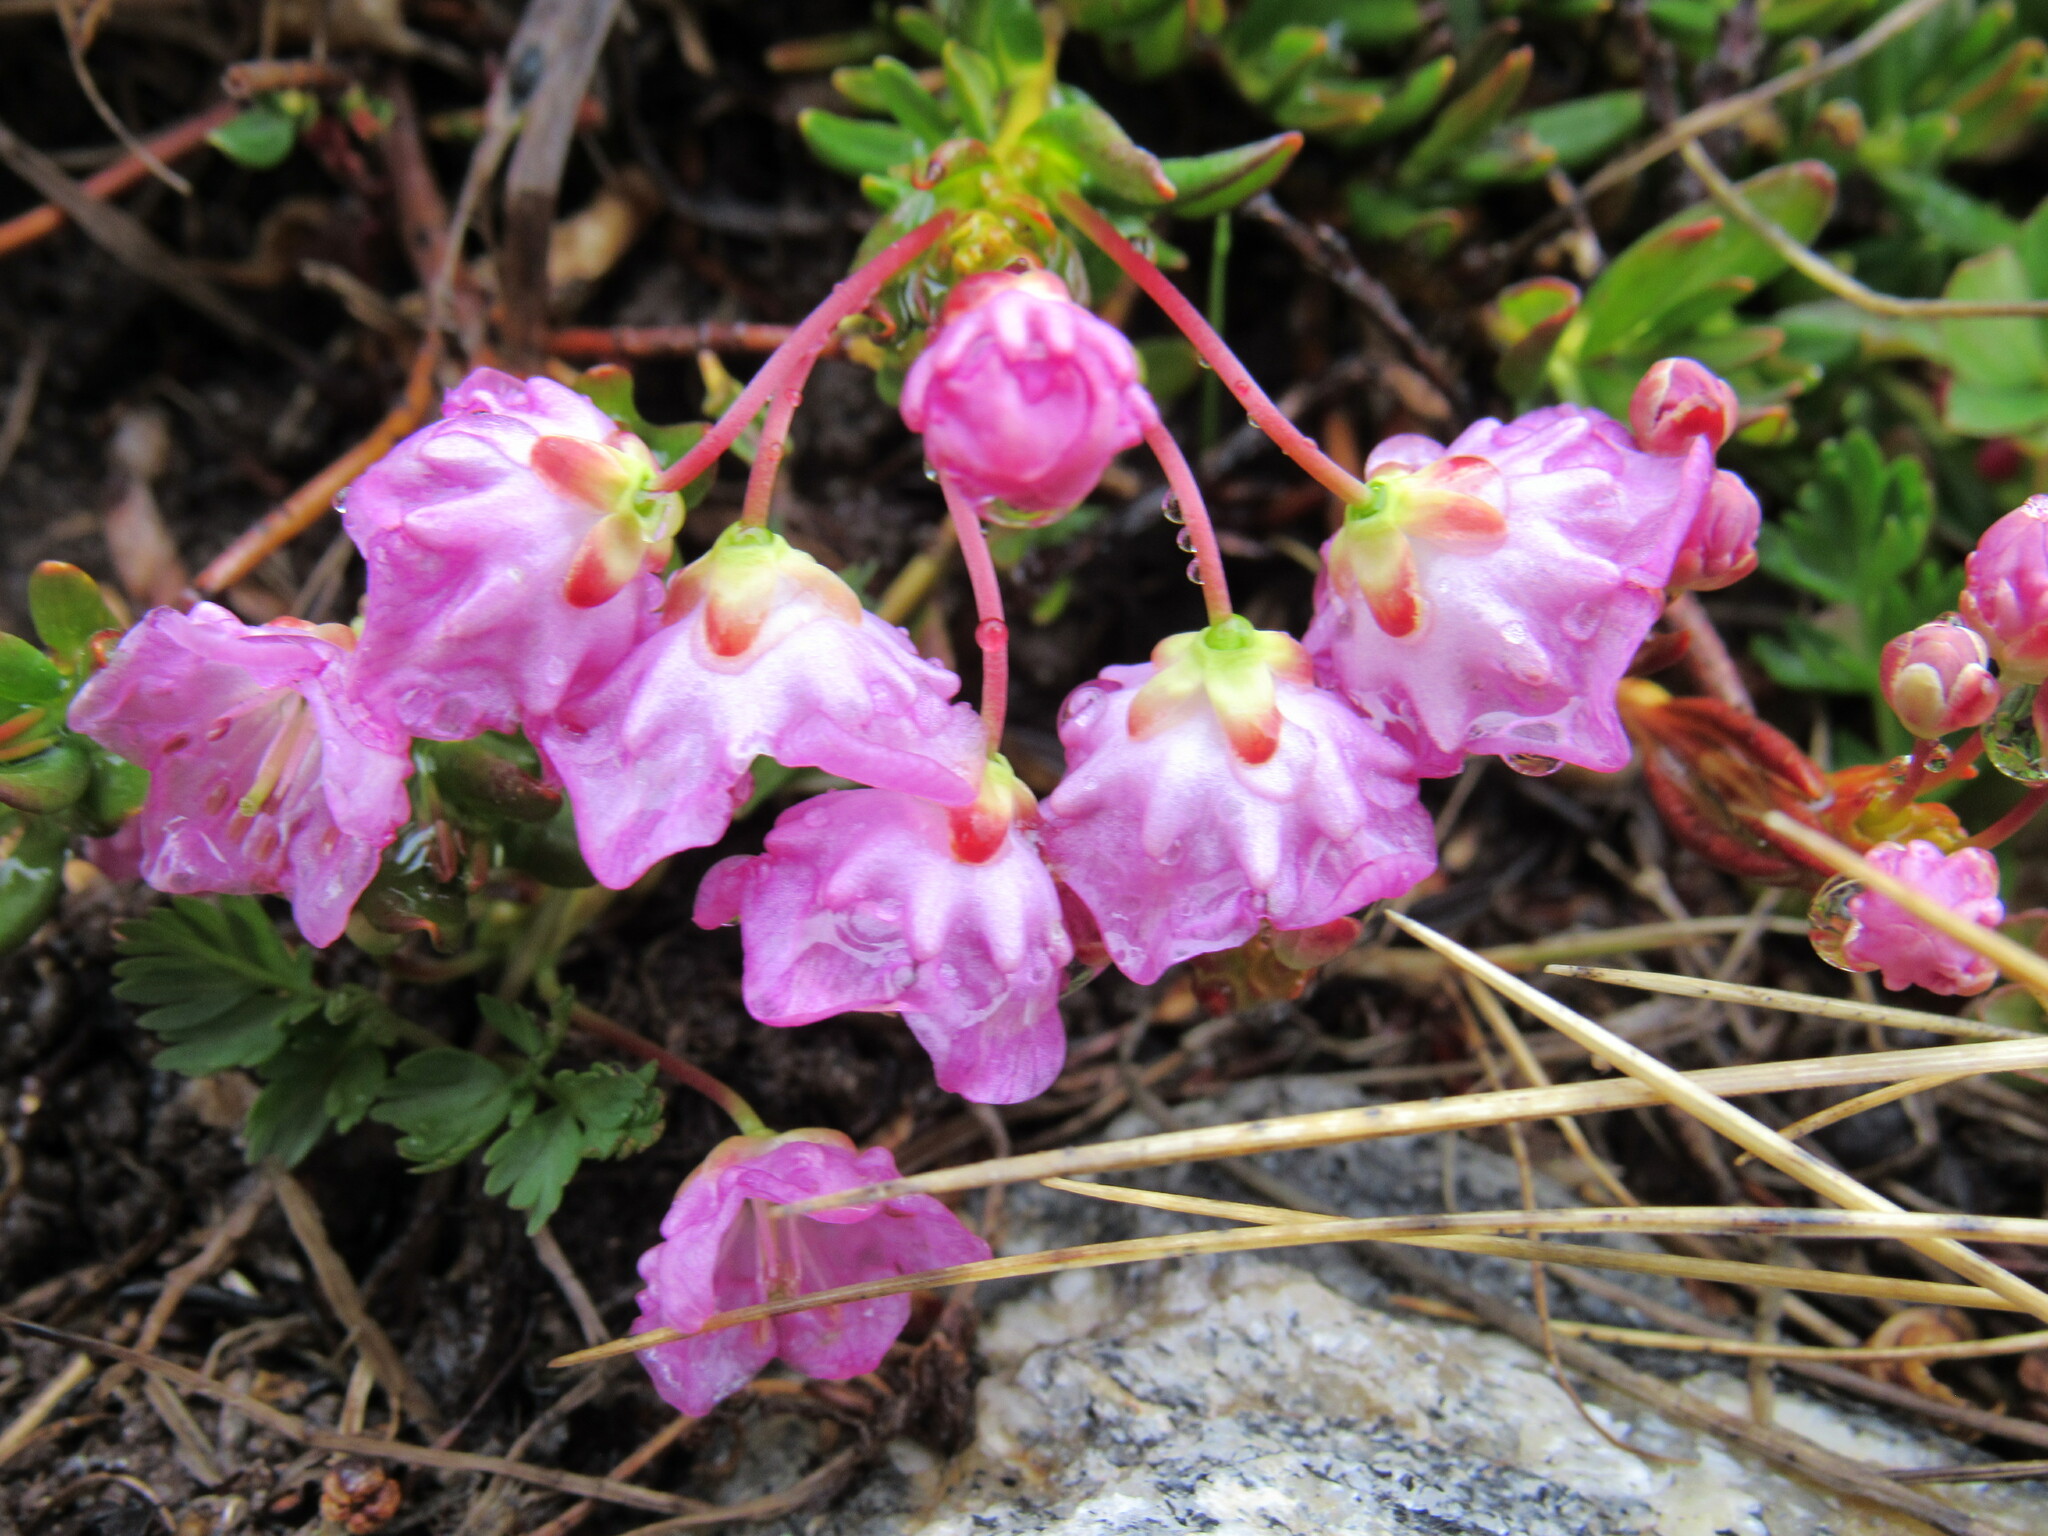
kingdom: Plantae
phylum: Tracheophyta
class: Magnoliopsida
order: Ericales
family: Ericaceae
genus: Kalmia
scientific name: Kalmia microphylla
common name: Alpine bog laurel
